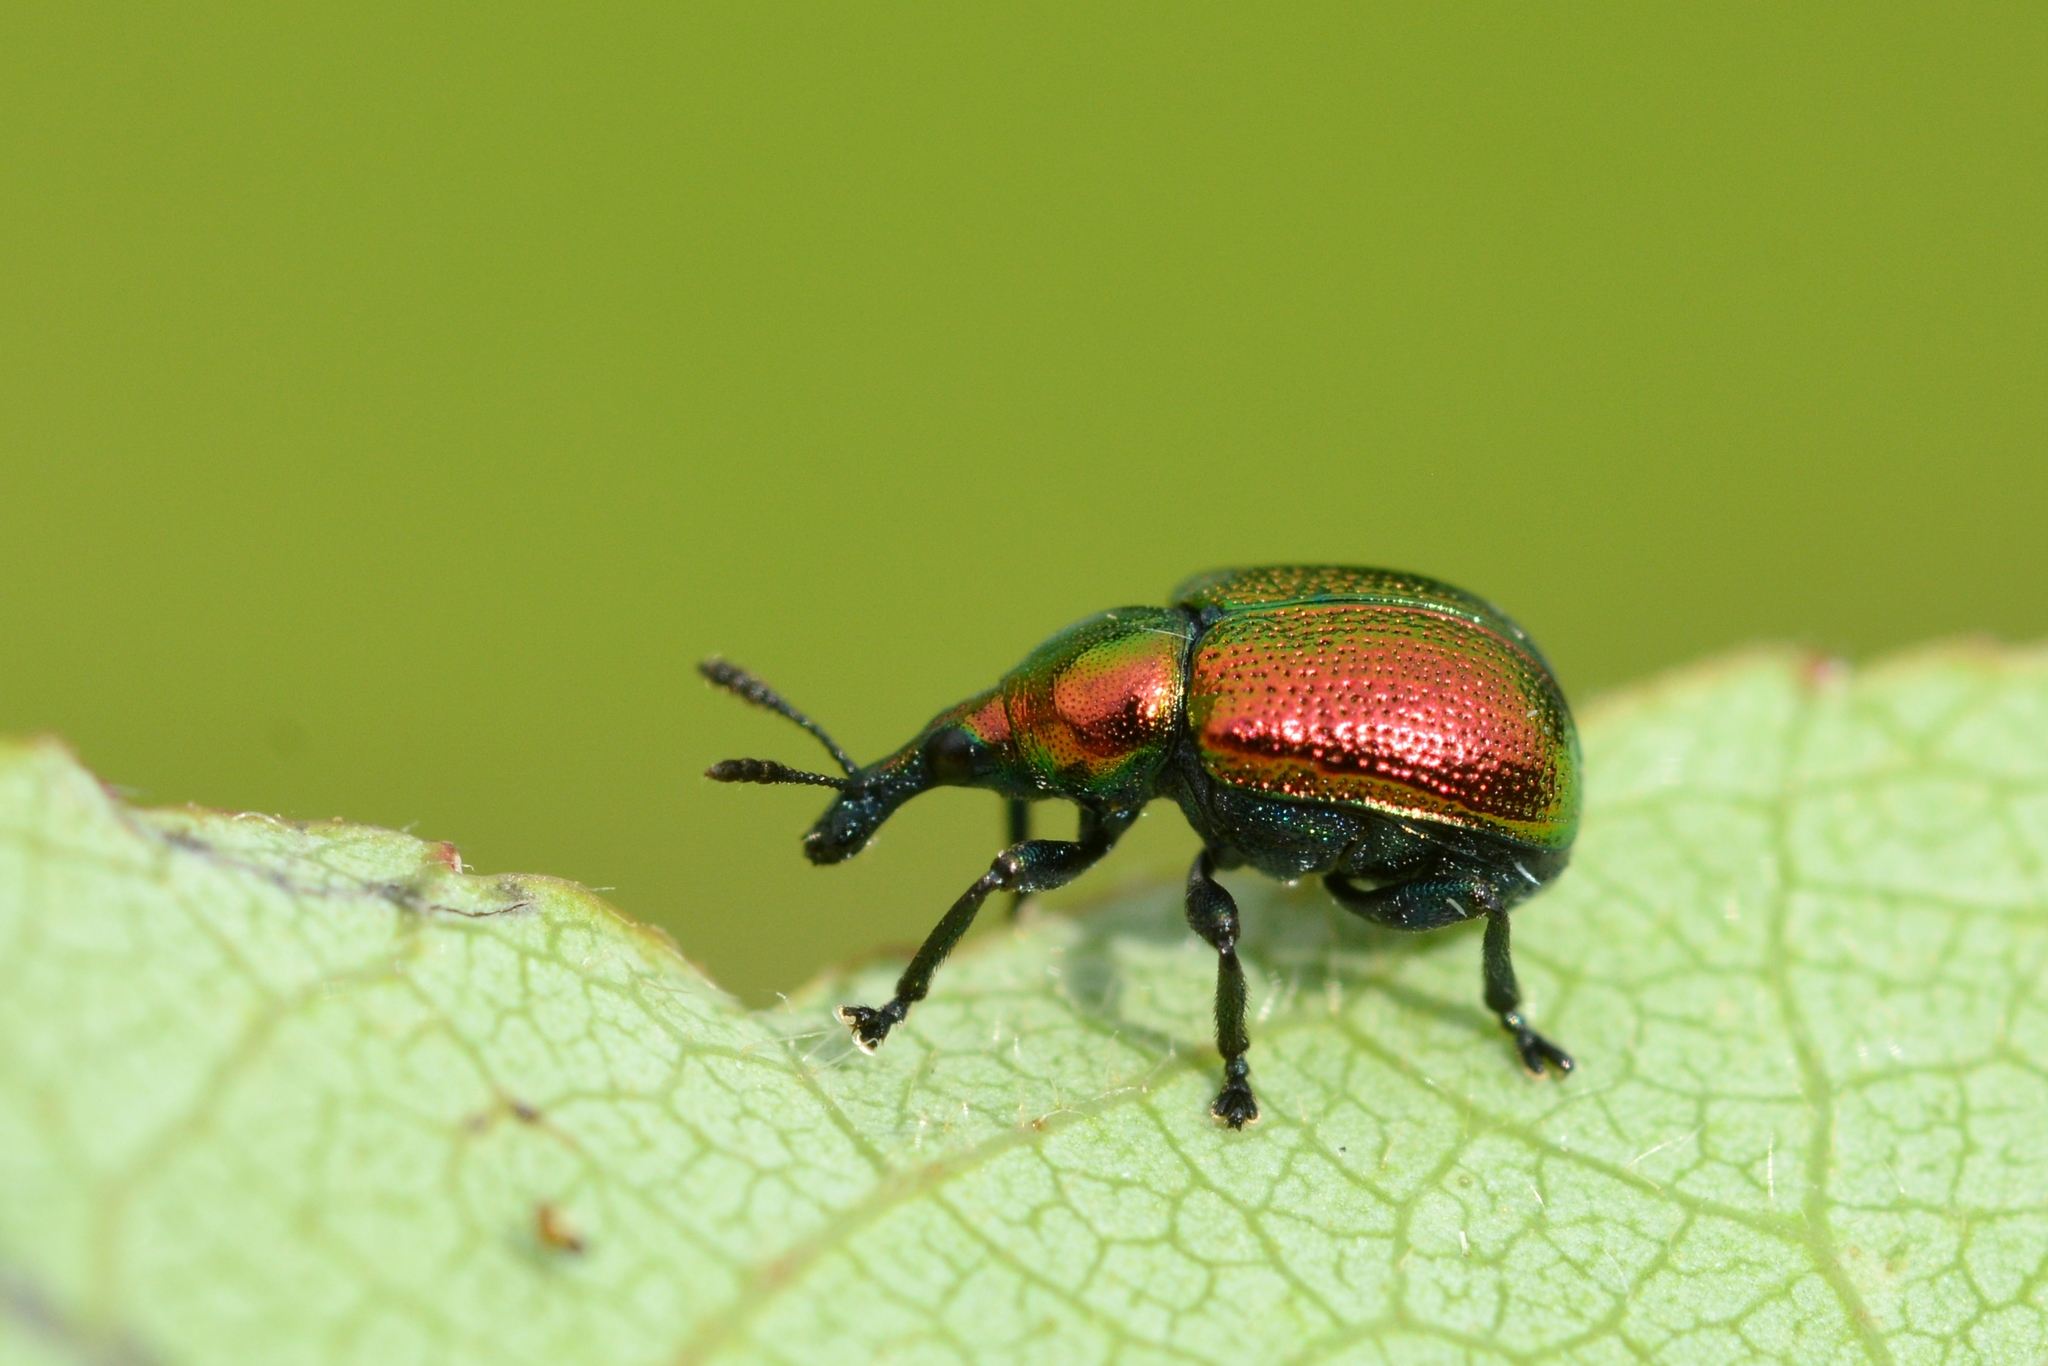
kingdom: Animalia
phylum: Arthropoda
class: Insecta
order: Coleoptera
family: Attelabidae
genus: Byctiscus
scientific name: Byctiscus populi
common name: Leaf-rolling weevil
